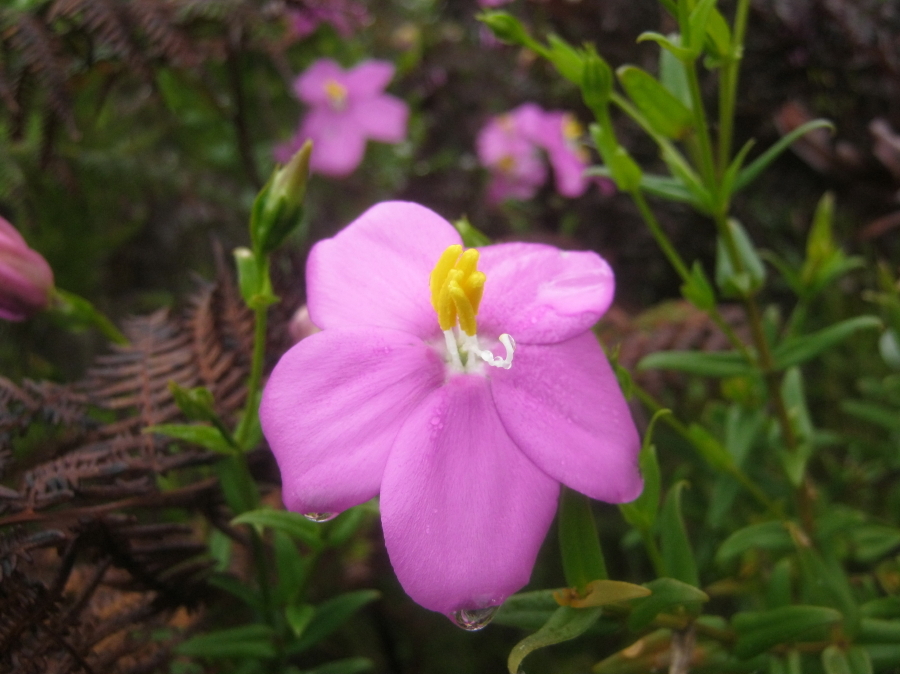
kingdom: Plantae
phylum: Tracheophyta
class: Magnoliopsida
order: Gentianales
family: Gentianaceae
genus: Chironia
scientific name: Chironia melampyrifolia
